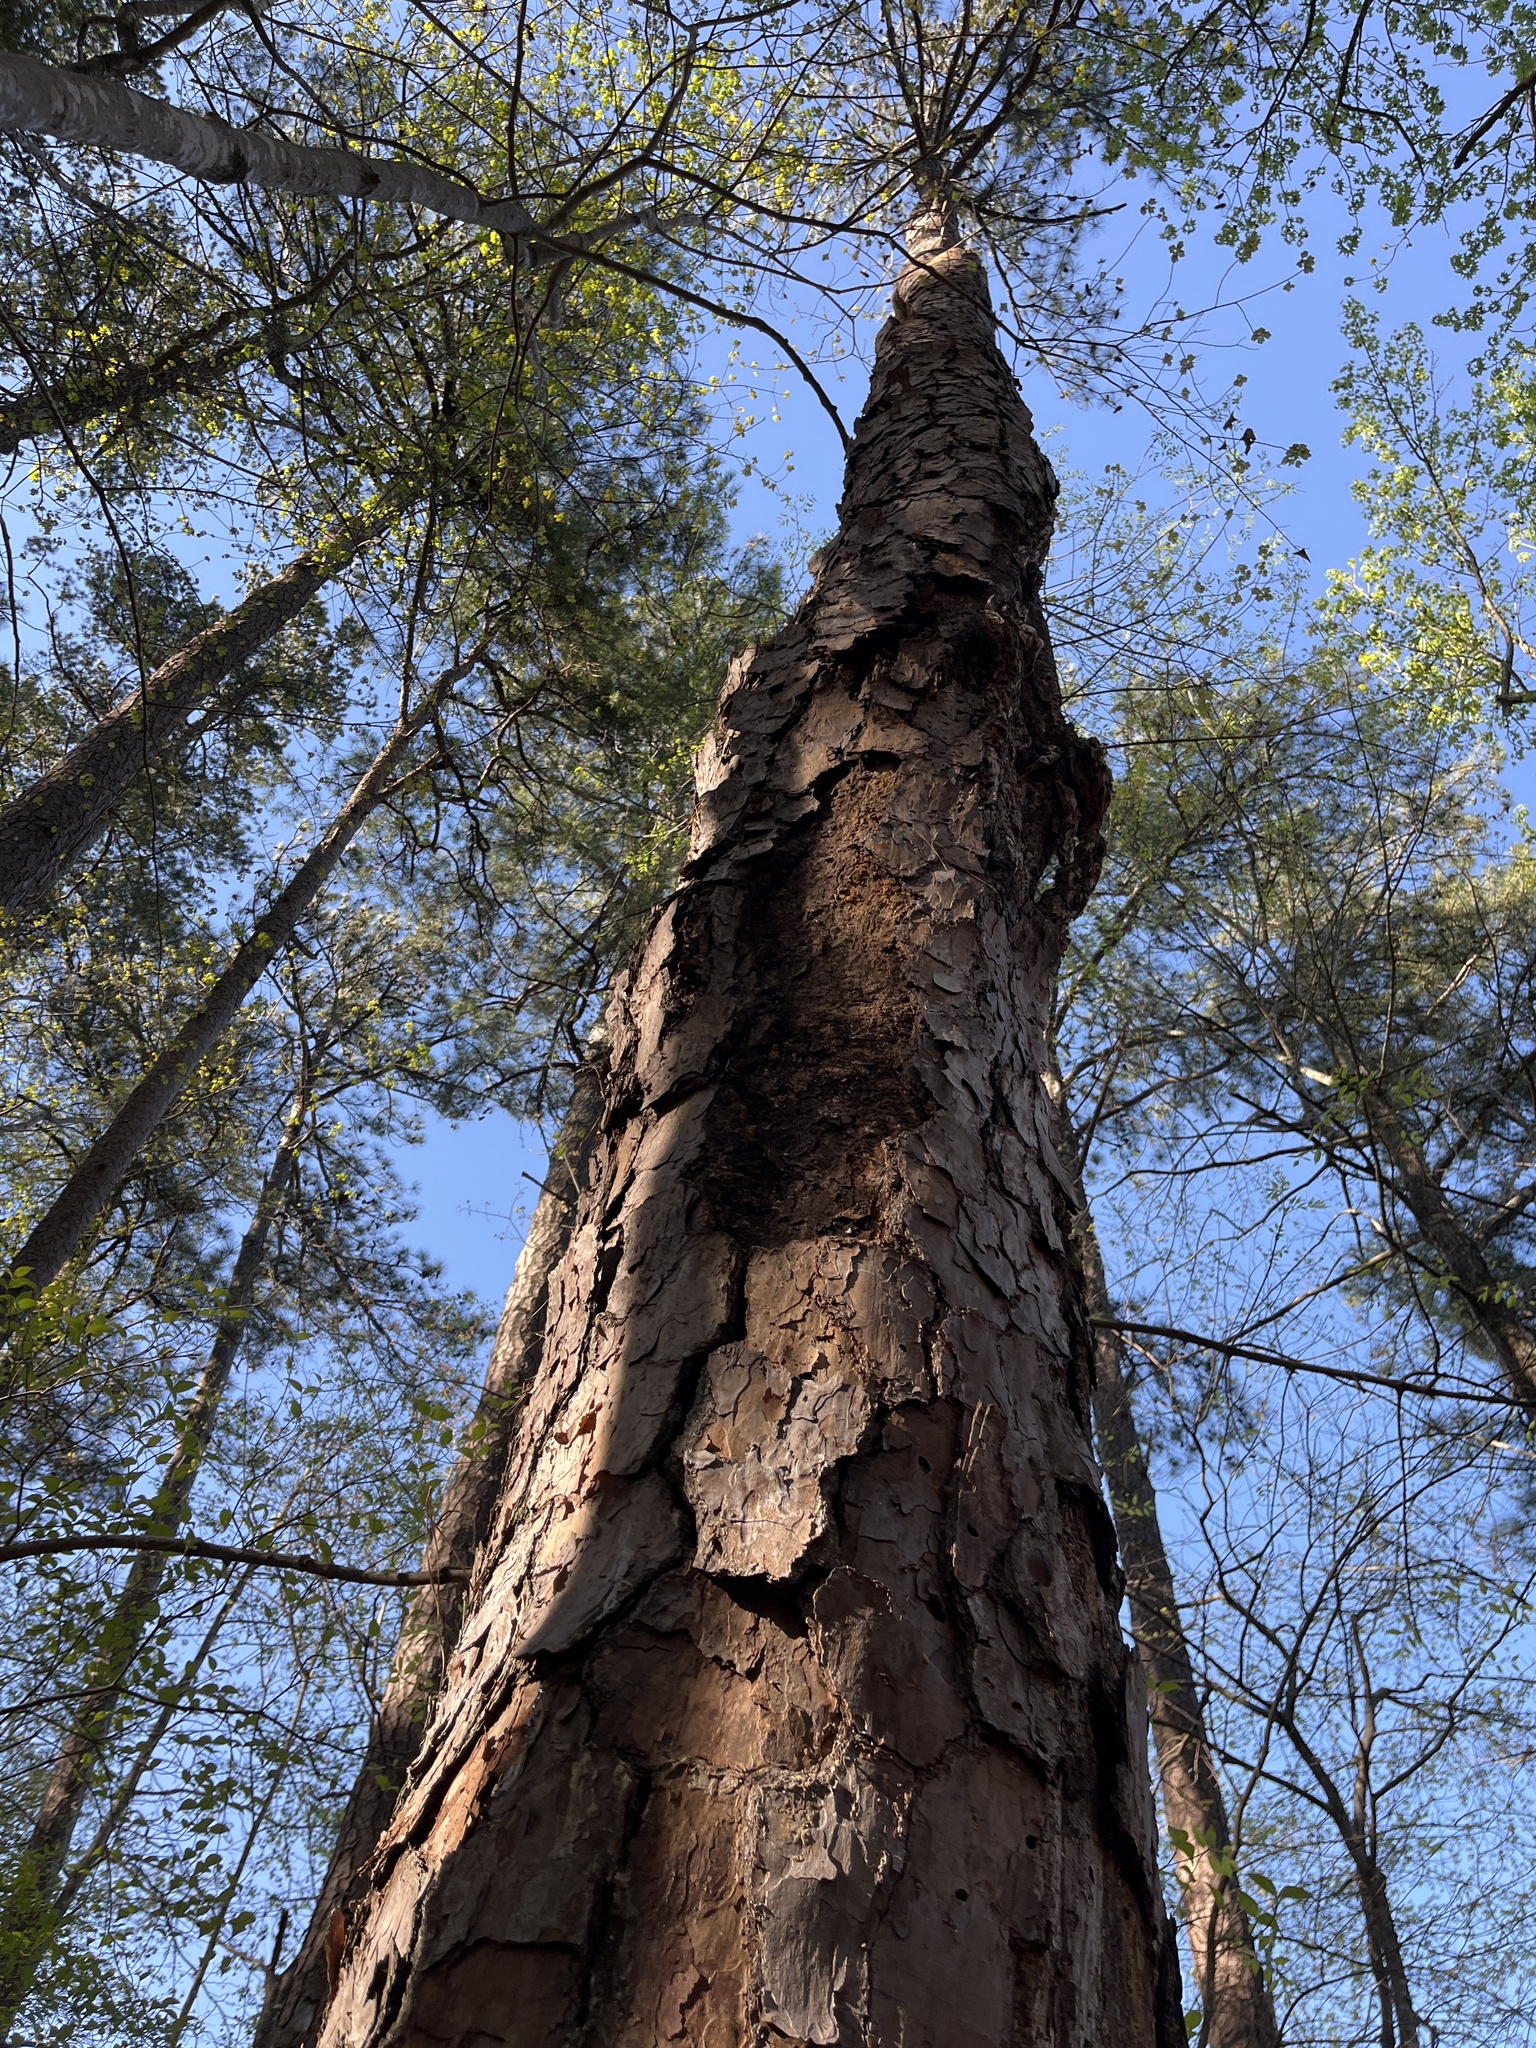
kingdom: Plantae
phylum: Tracheophyta
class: Pinopsida
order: Pinales
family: Pinaceae
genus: Pinus
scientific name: Pinus echinata
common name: Shortleaf pine
